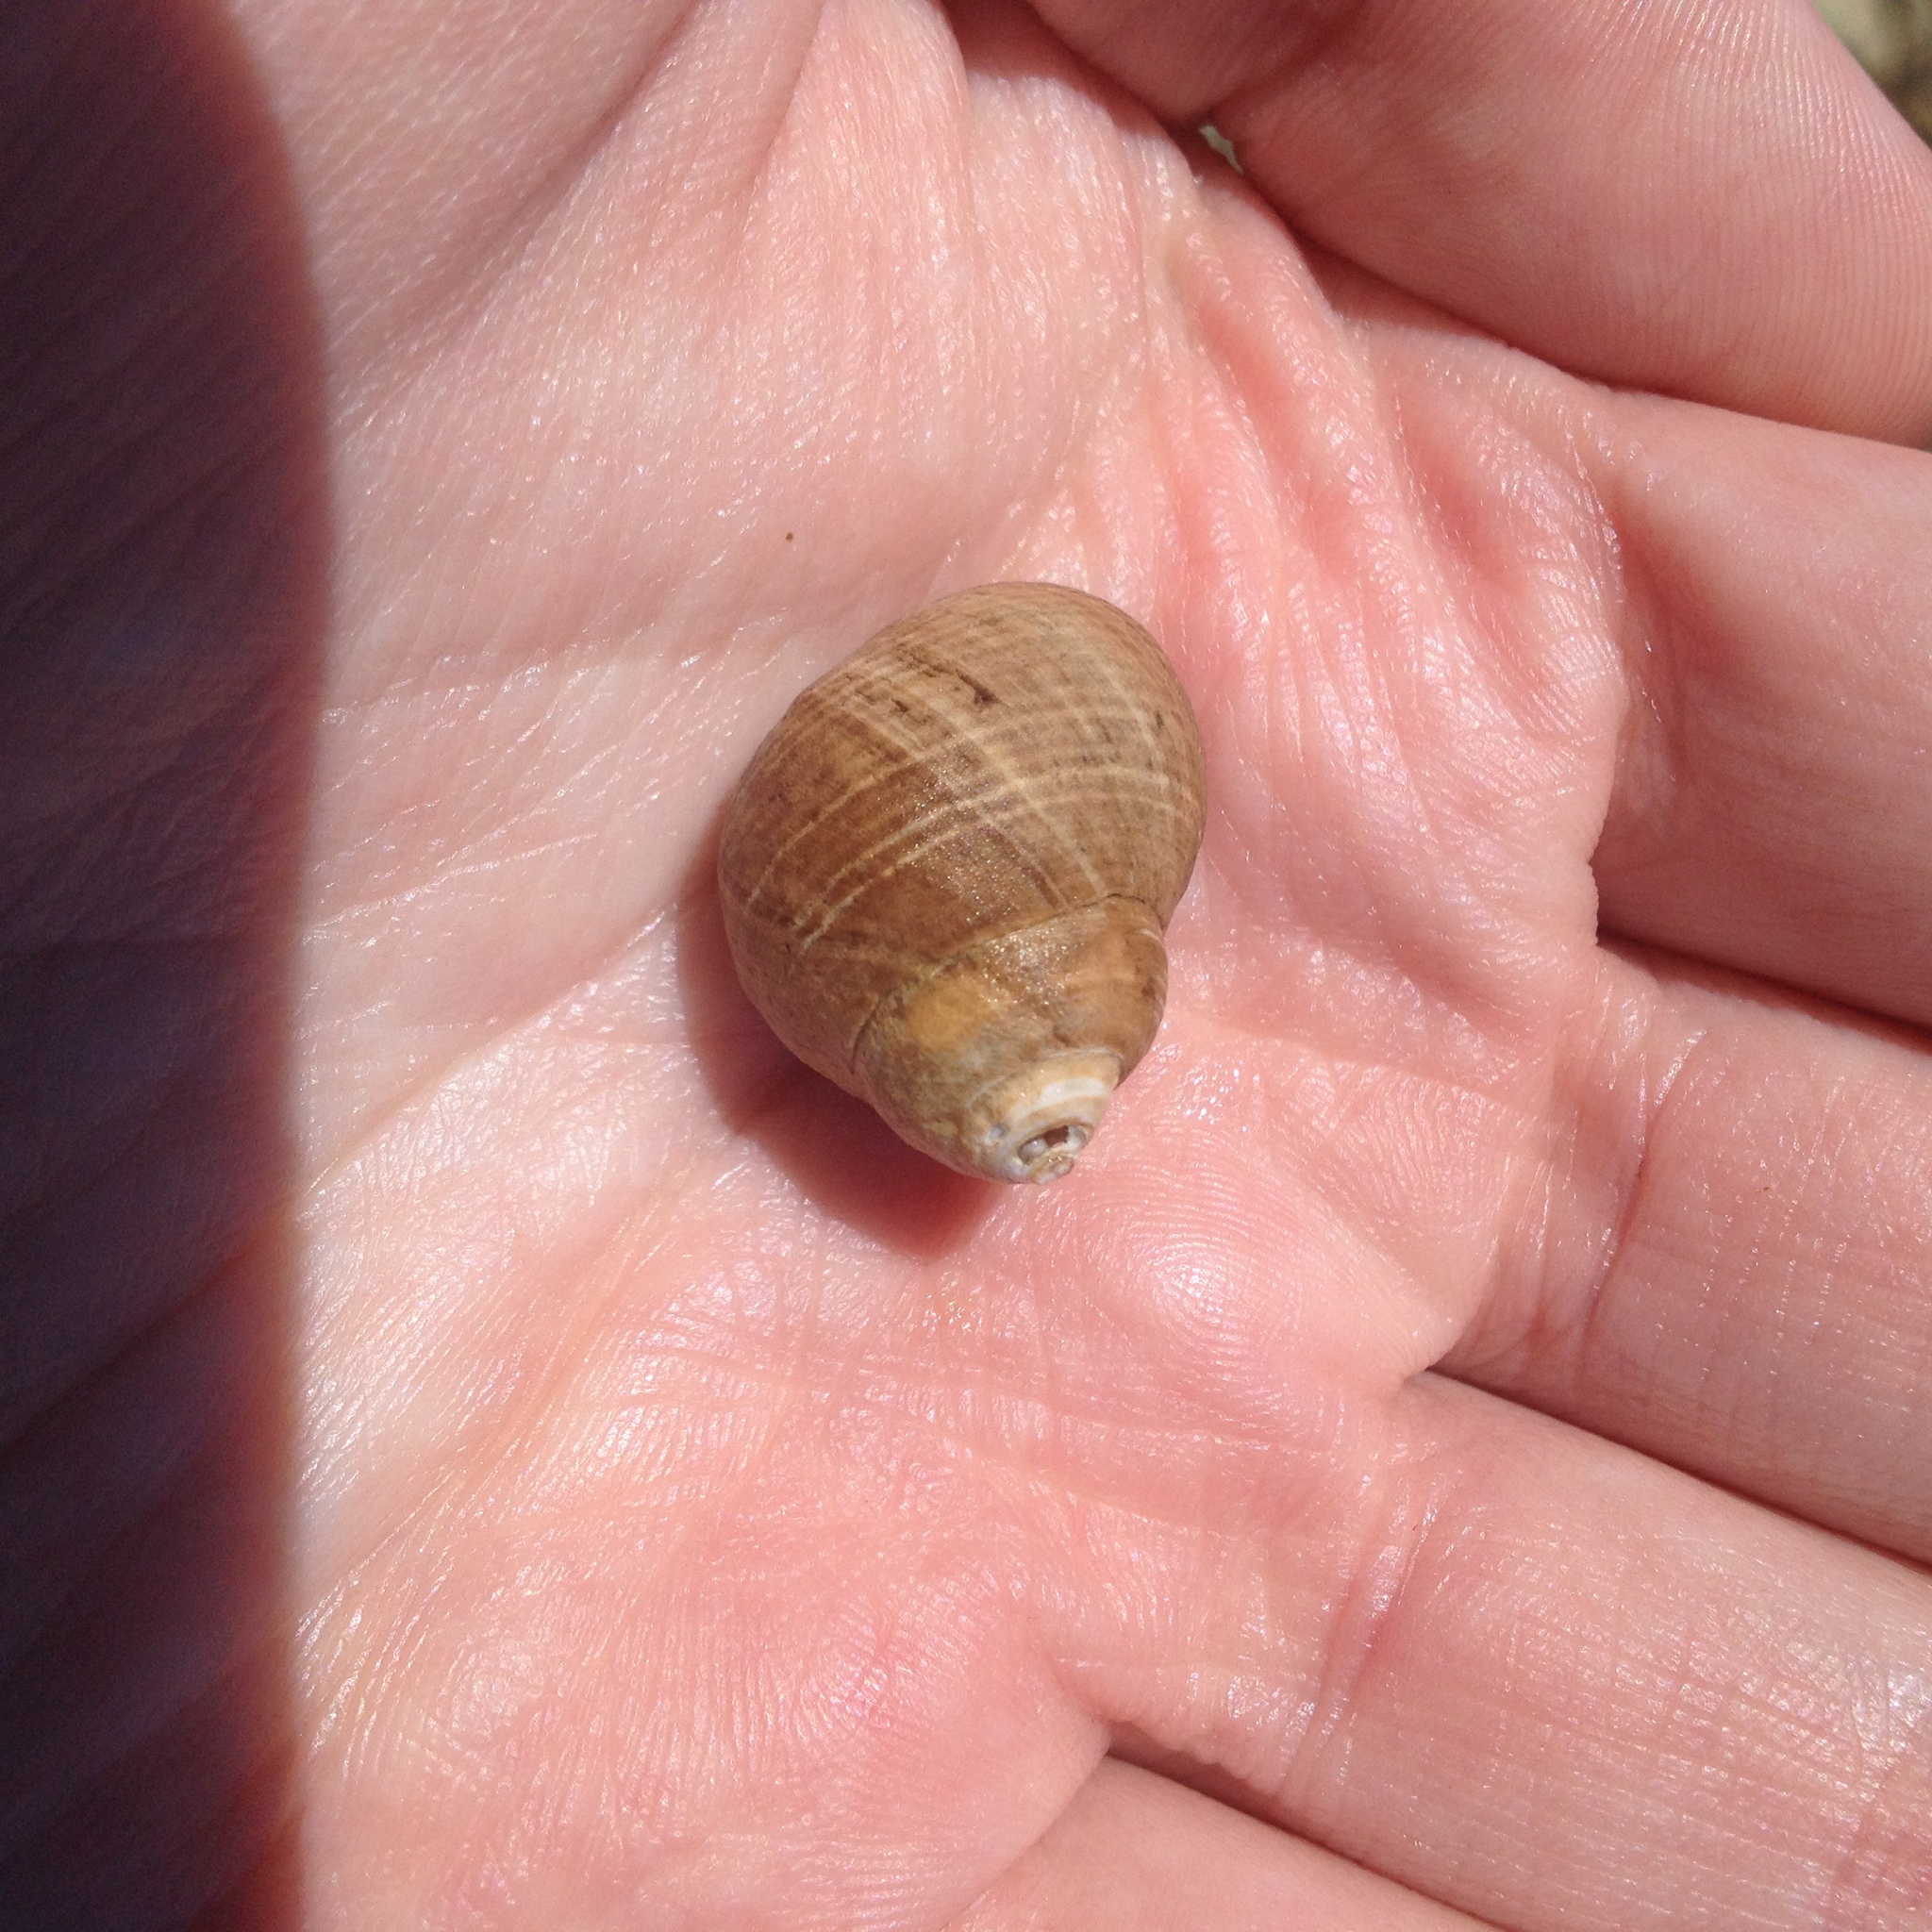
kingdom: Animalia
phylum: Mollusca
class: Gastropoda
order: Littorinimorpha
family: Littorinidae
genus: Littorina
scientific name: Littorina littorea
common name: Common periwinkle
